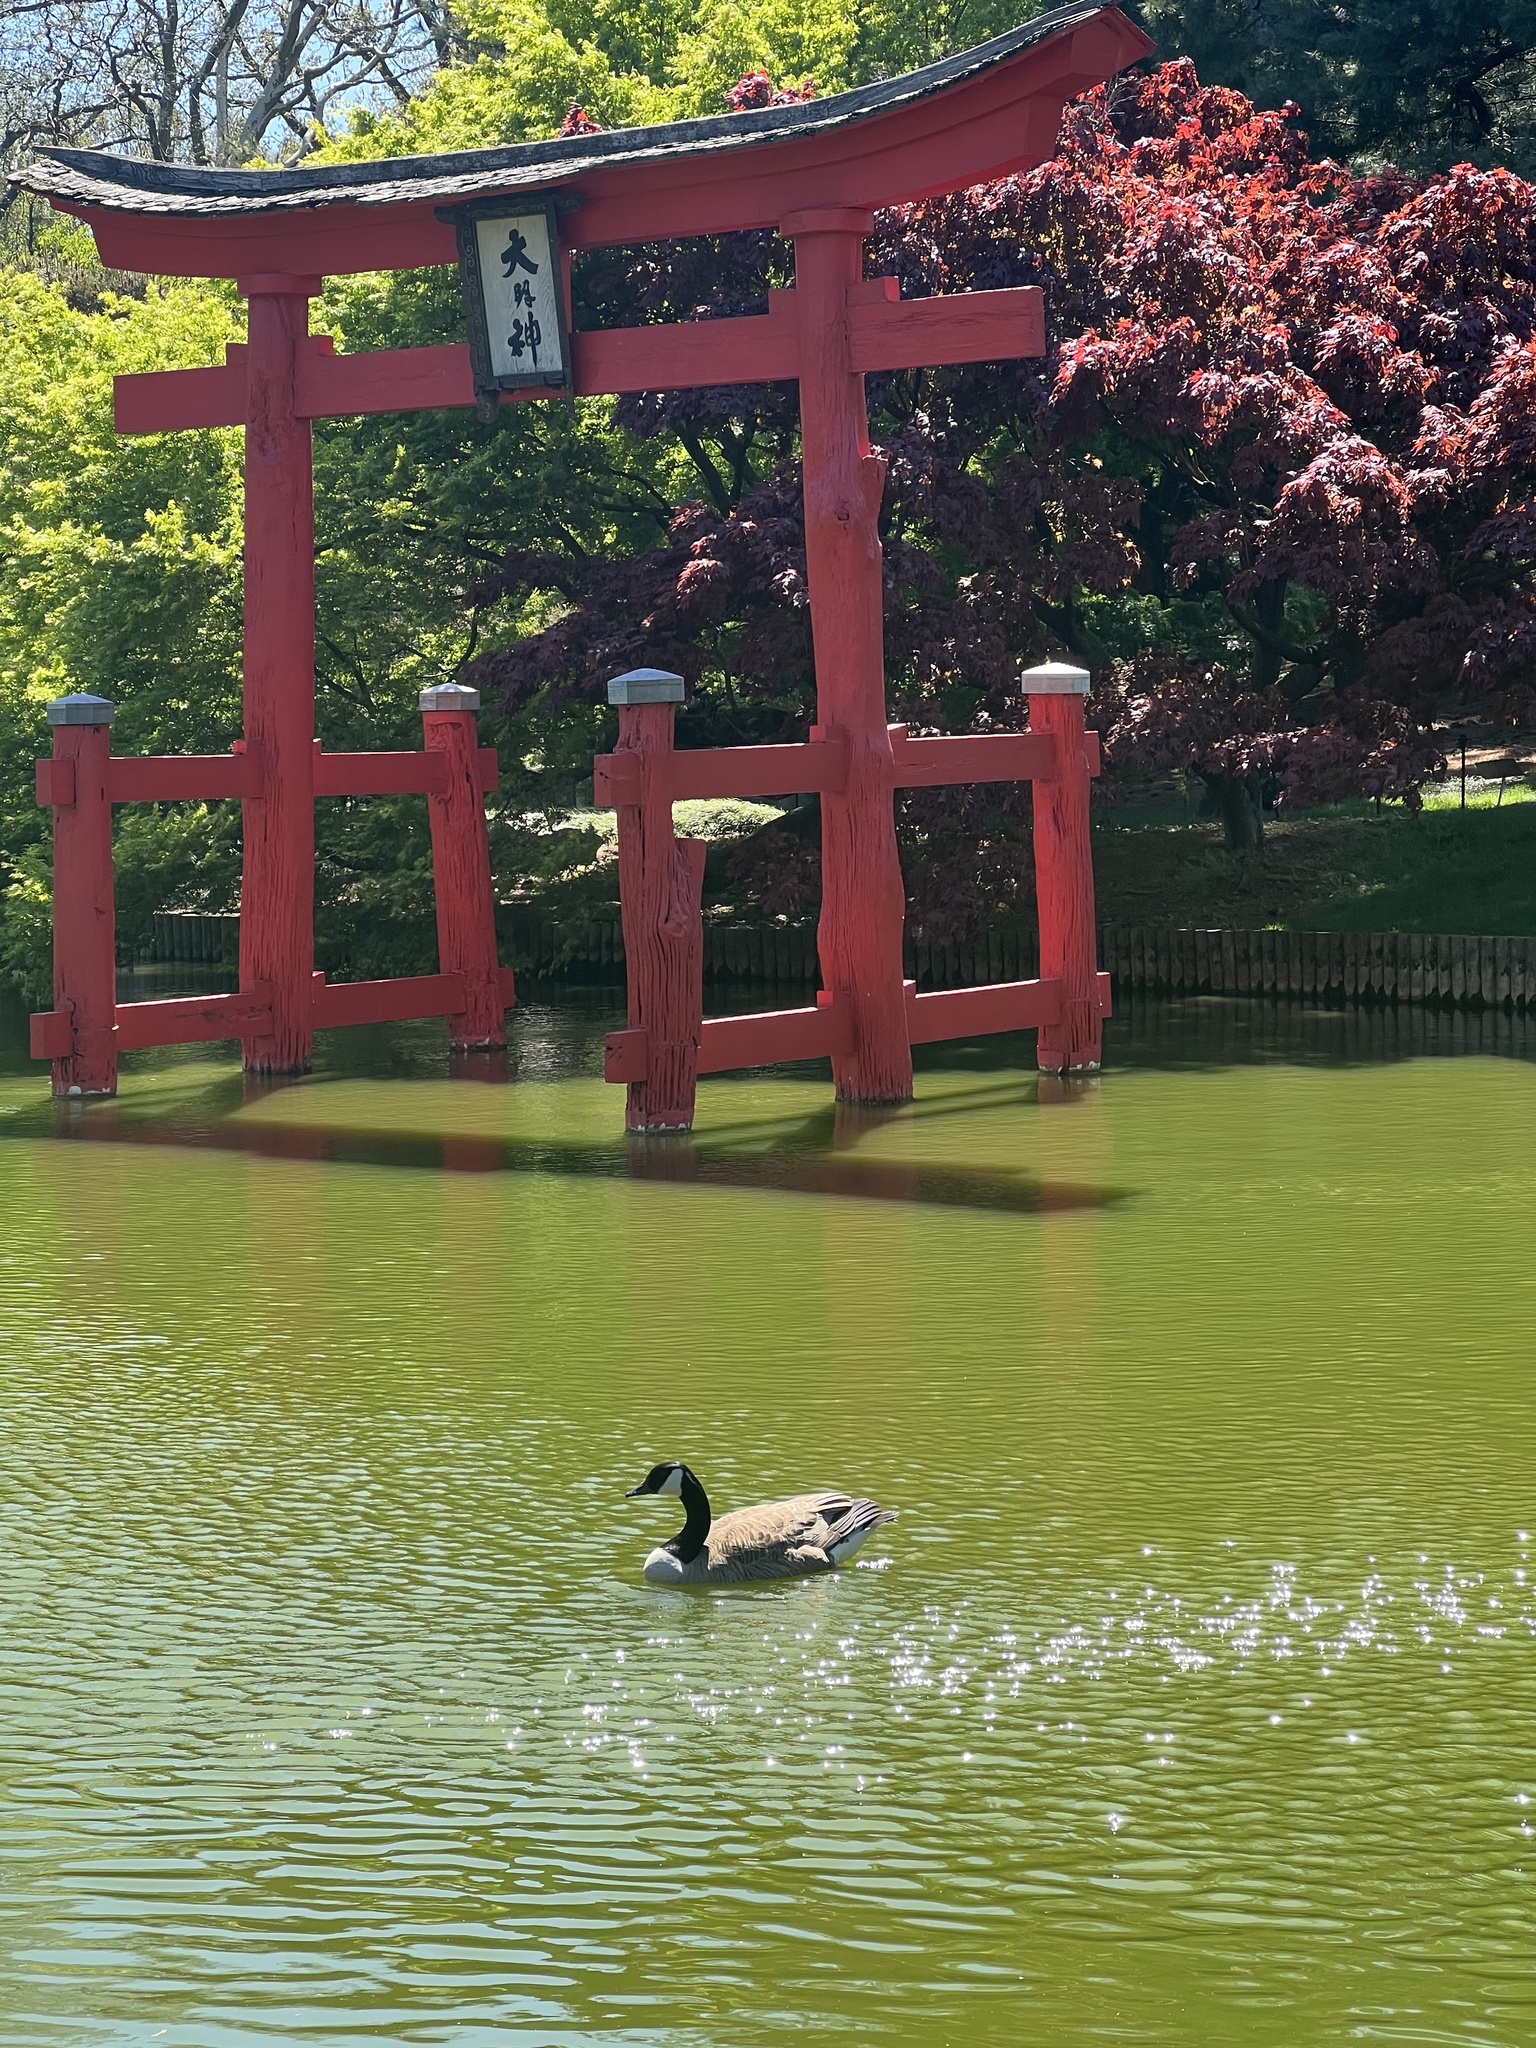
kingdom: Animalia
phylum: Chordata
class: Aves
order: Anseriformes
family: Anatidae
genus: Branta
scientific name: Branta canadensis
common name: Canada goose
